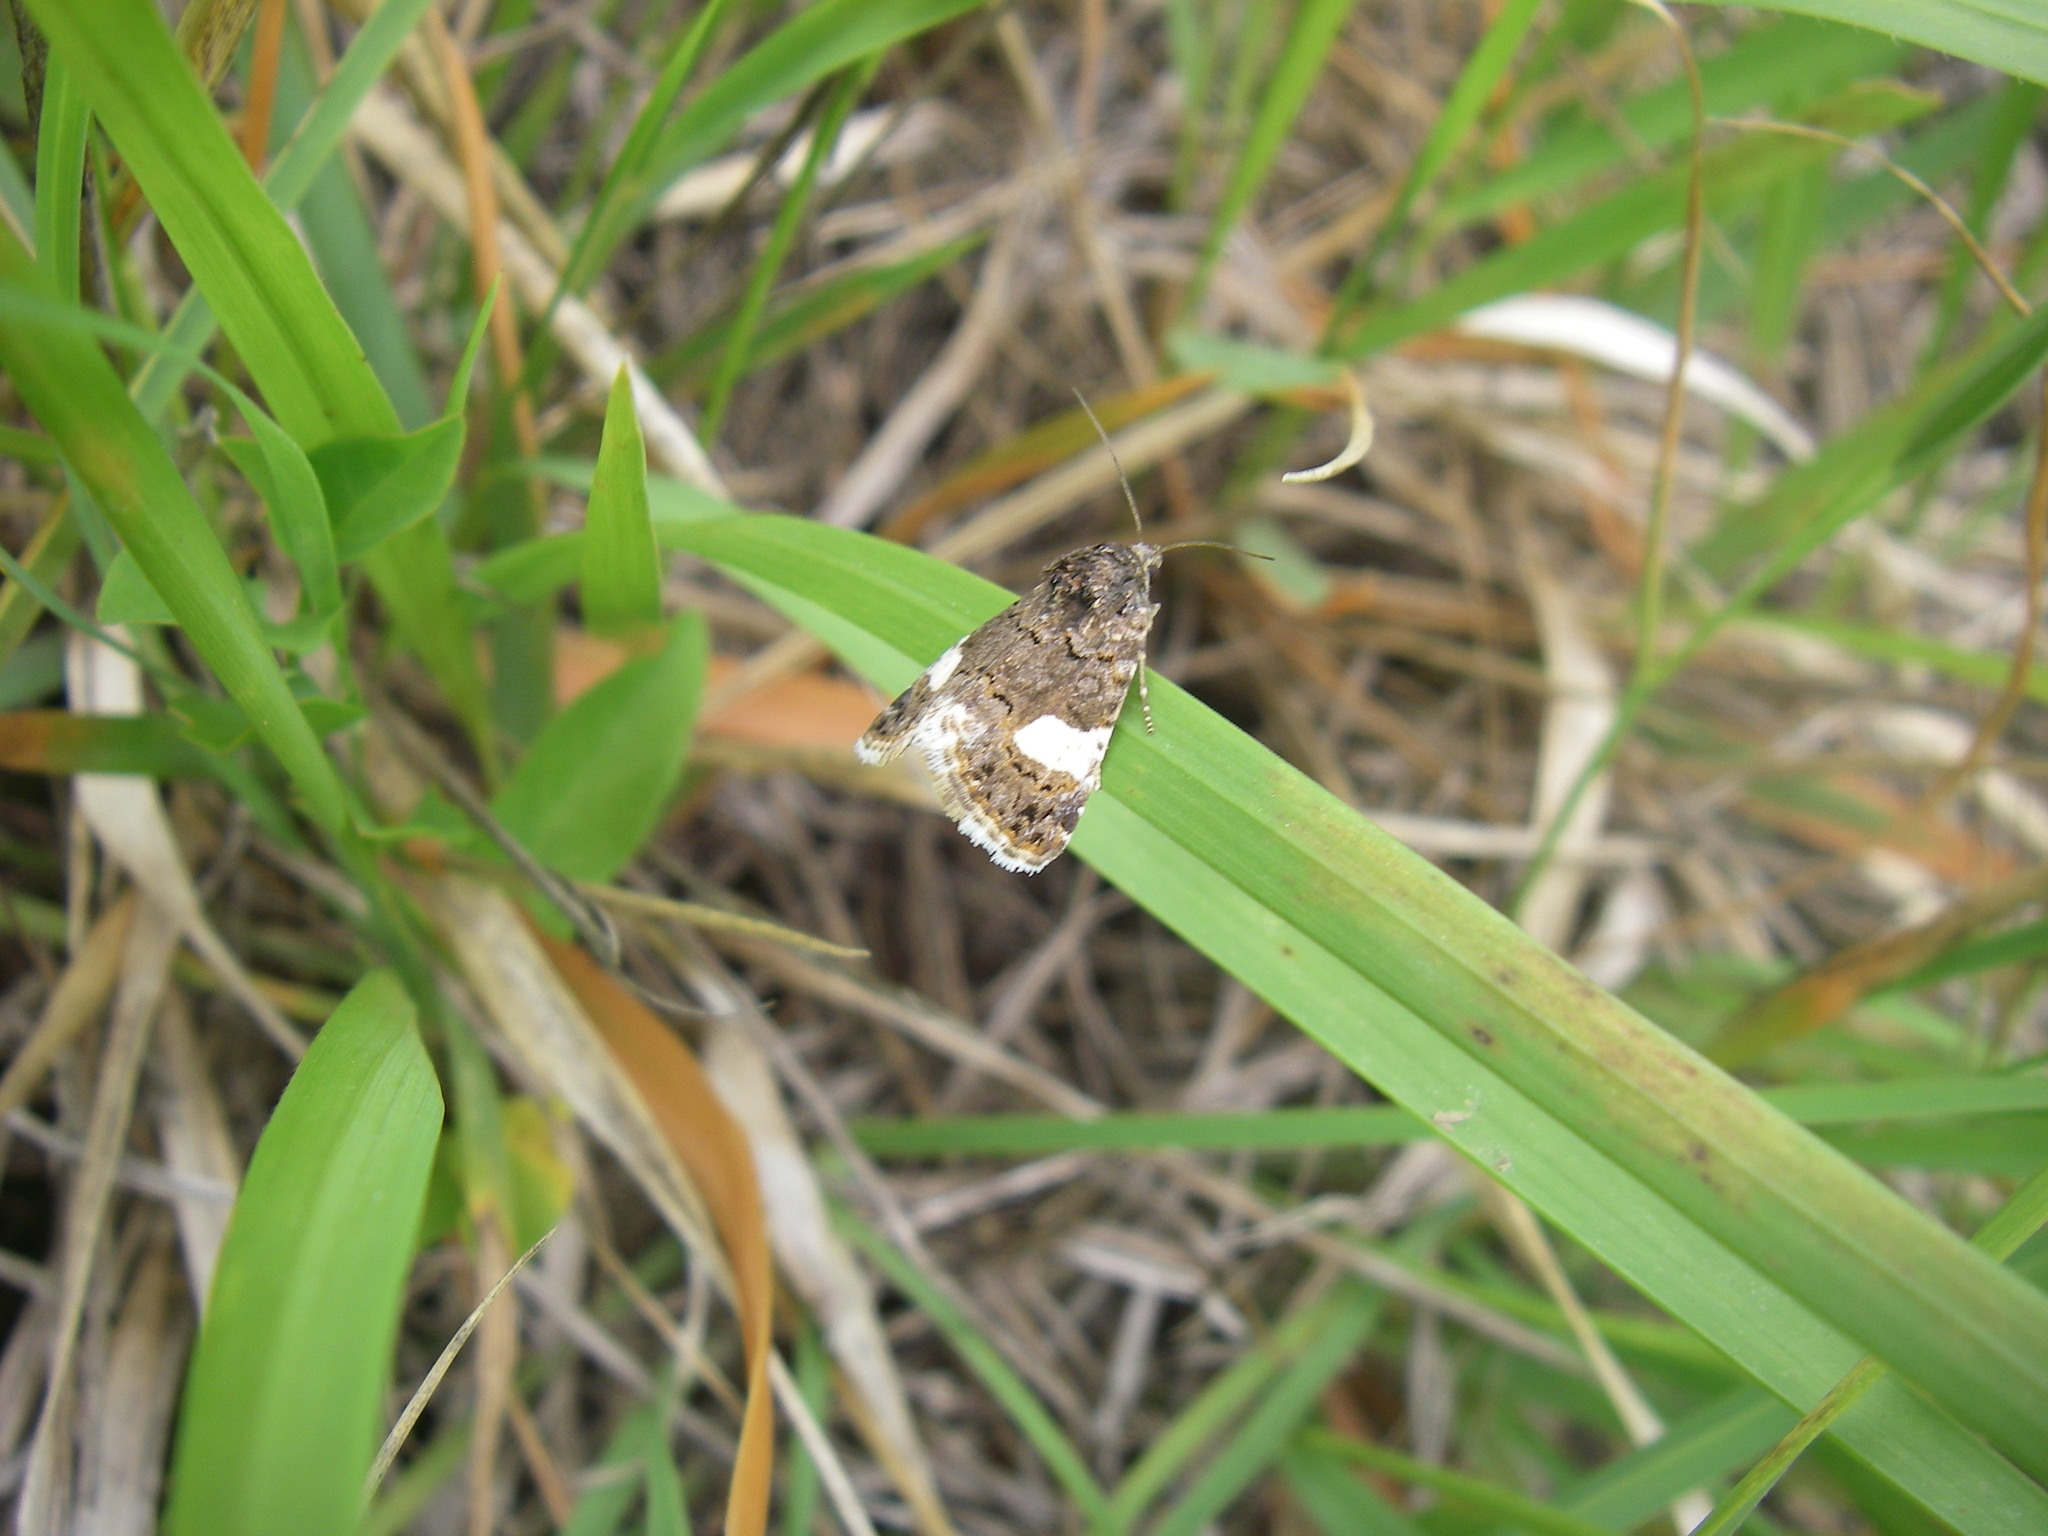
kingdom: Animalia
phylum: Arthropoda
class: Insecta
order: Lepidoptera
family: Erebidae
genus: Tyta
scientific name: Tyta luctuosa
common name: Four-spotted
